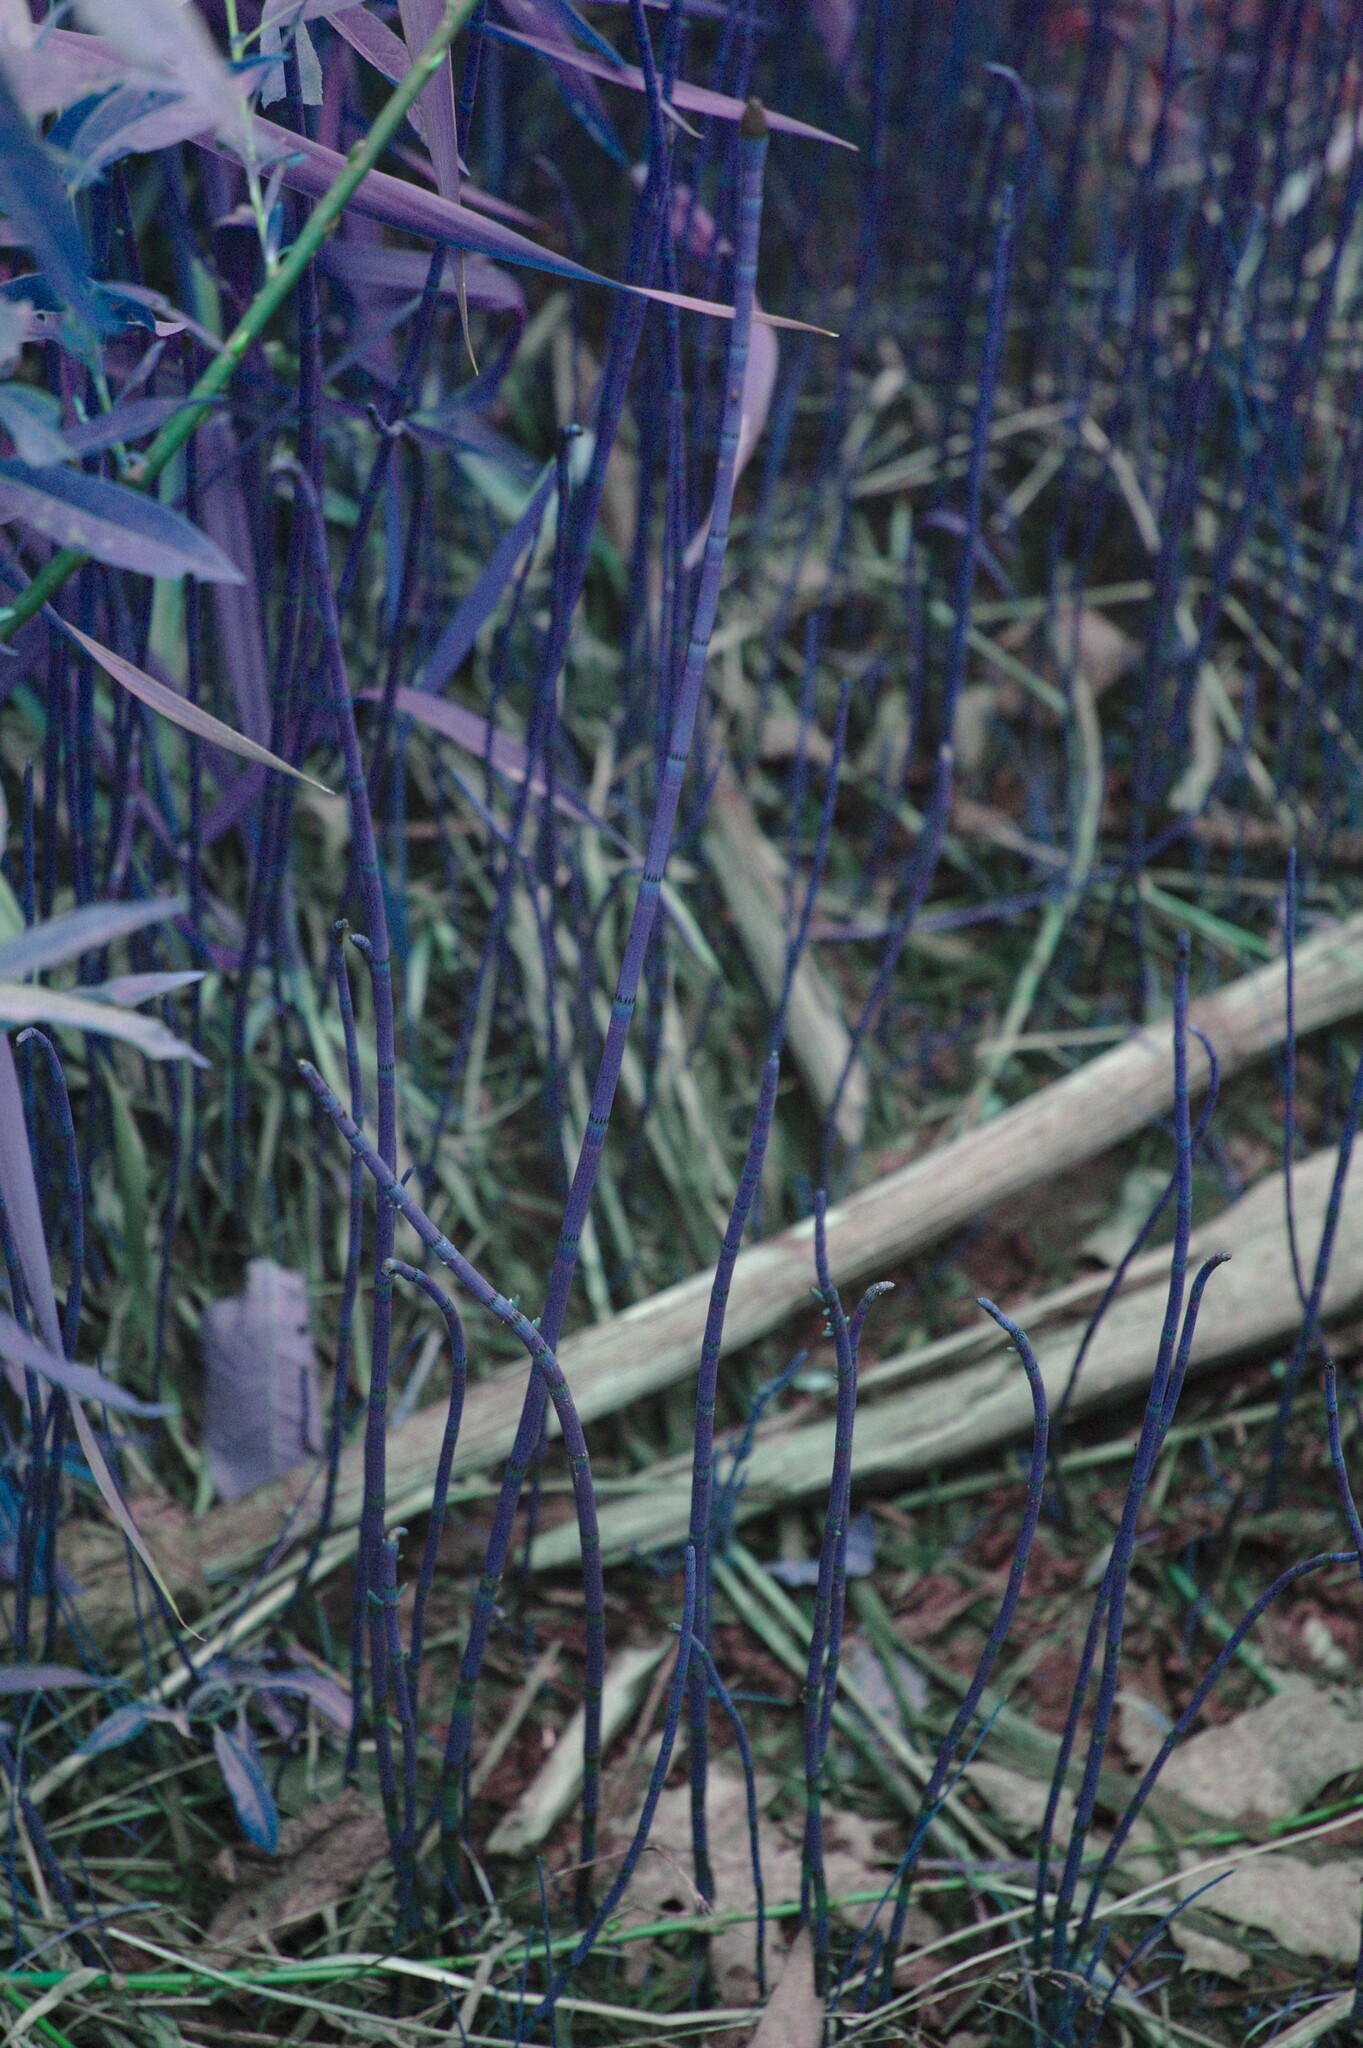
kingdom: Plantae
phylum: Tracheophyta
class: Polypodiopsida
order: Equisetales
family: Equisetaceae
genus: Equisetum
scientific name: Equisetum fluviatile
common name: Water horsetail
